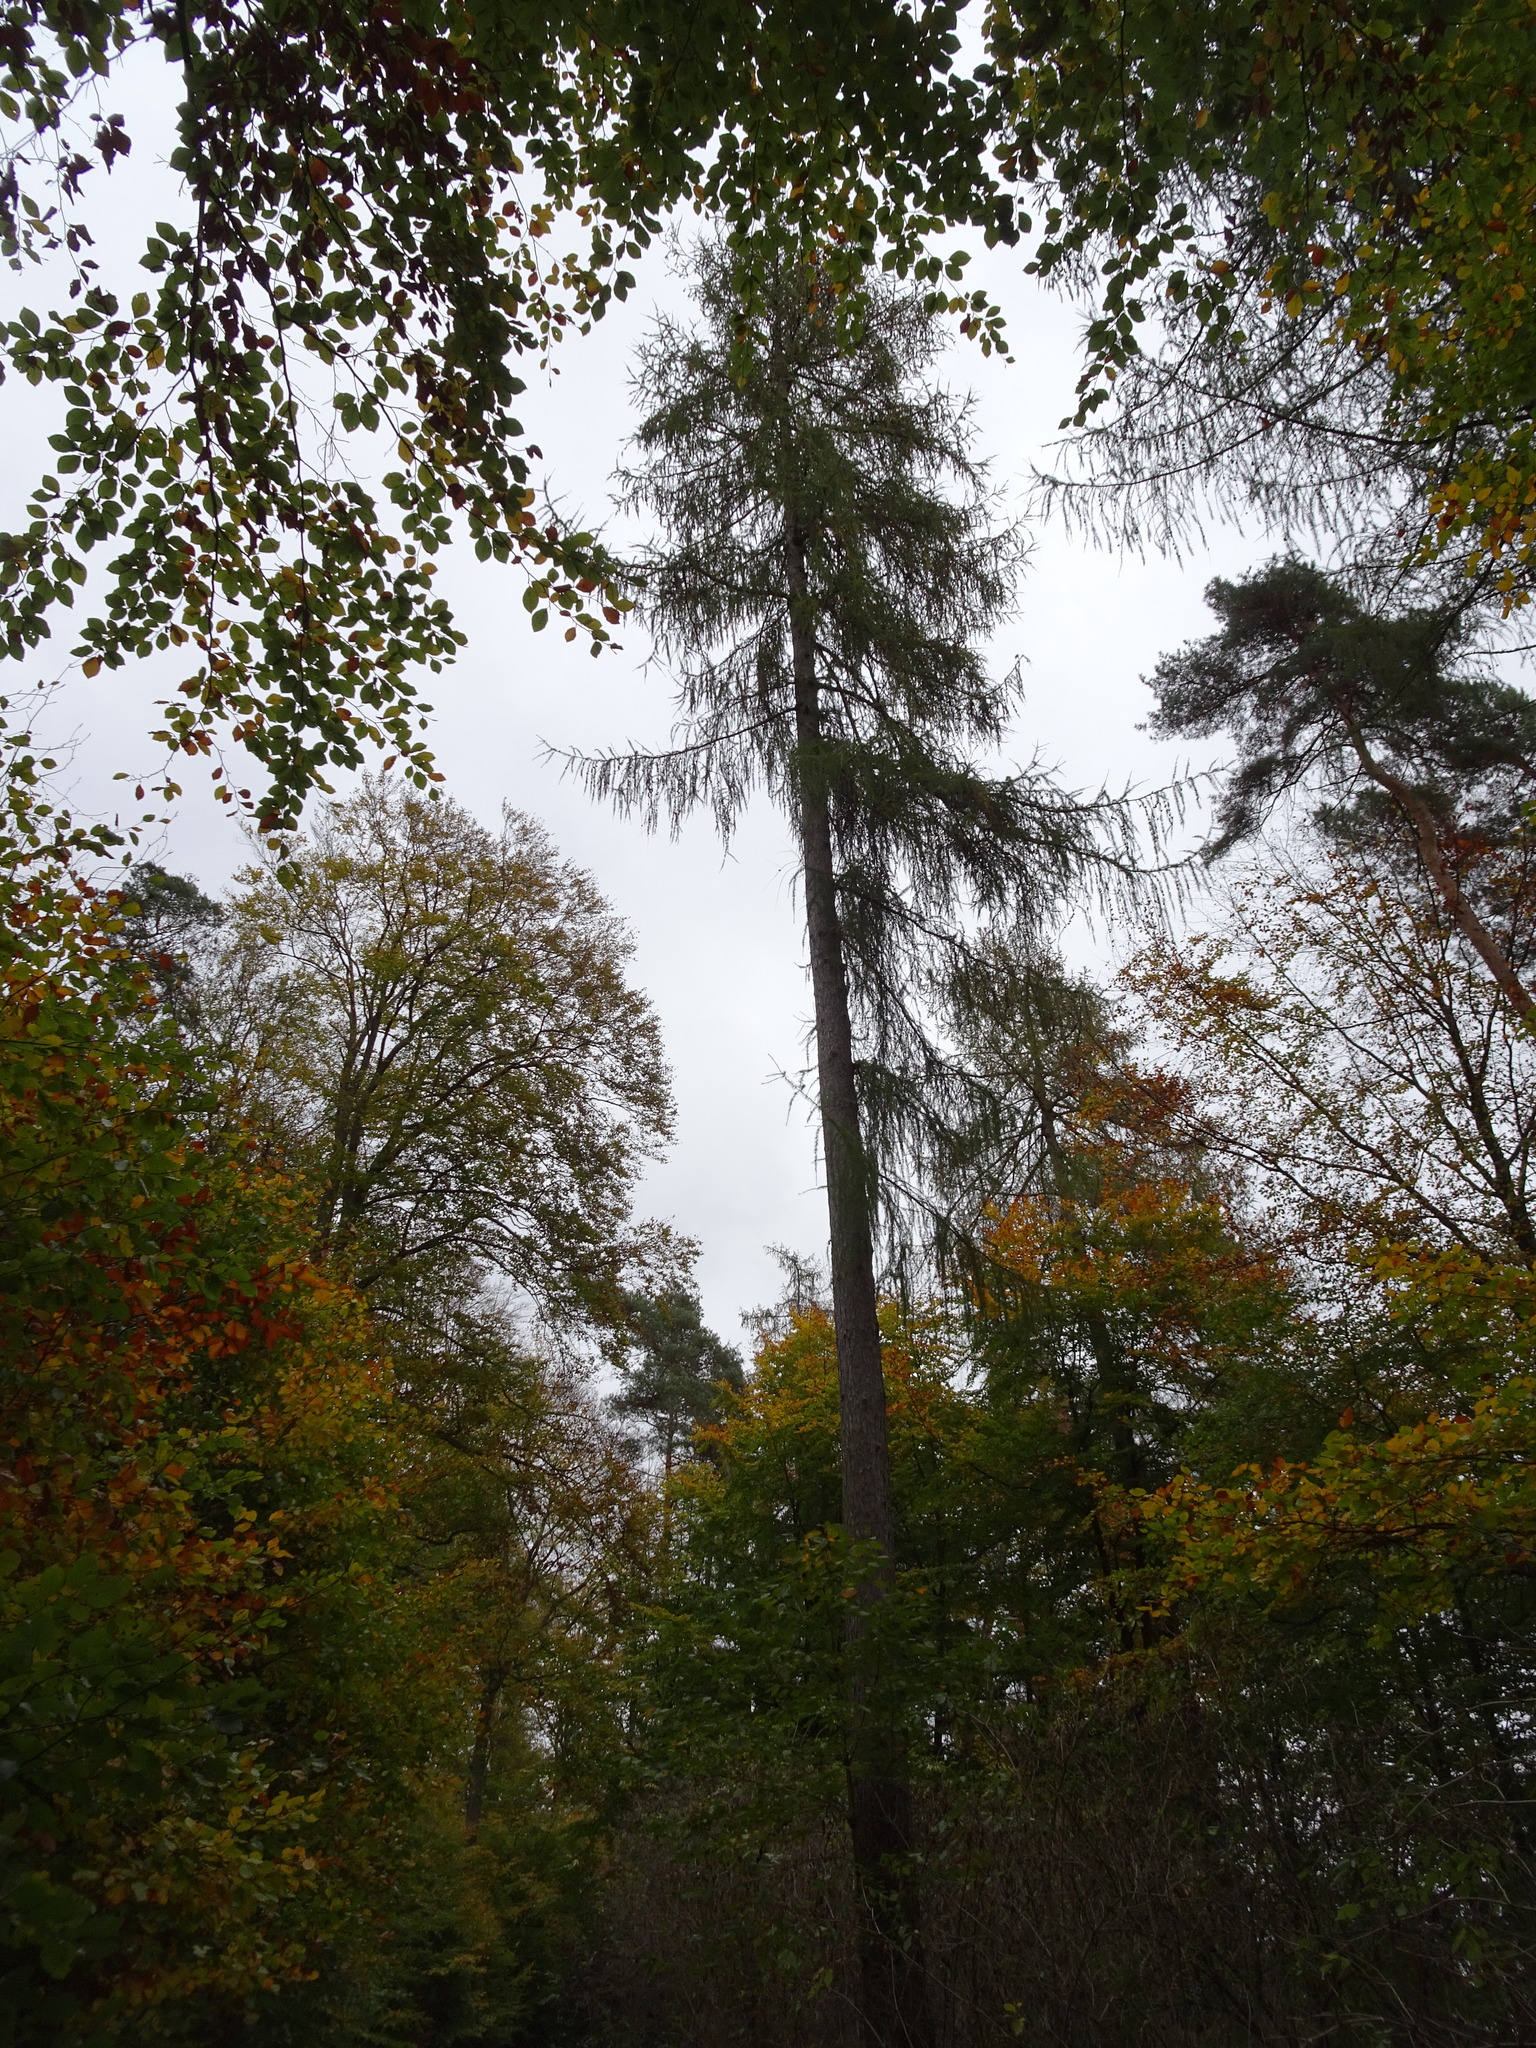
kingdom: Plantae
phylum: Tracheophyta
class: Pinopsida
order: Pinales
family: Pinaceae
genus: Larix
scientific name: Larix decidua
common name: European larch
